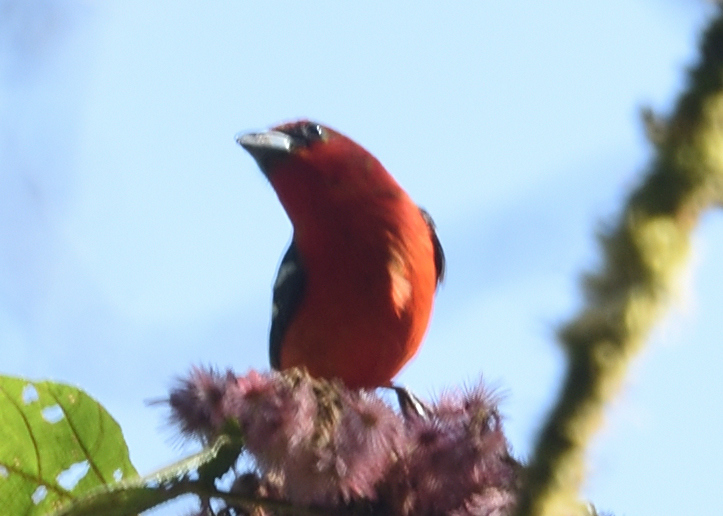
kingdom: Animalia
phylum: Chordata
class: Aves
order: Passeriformes
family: Cardinalidae
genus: Piranga
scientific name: Piranga leucoptera
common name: White-winged tanager
